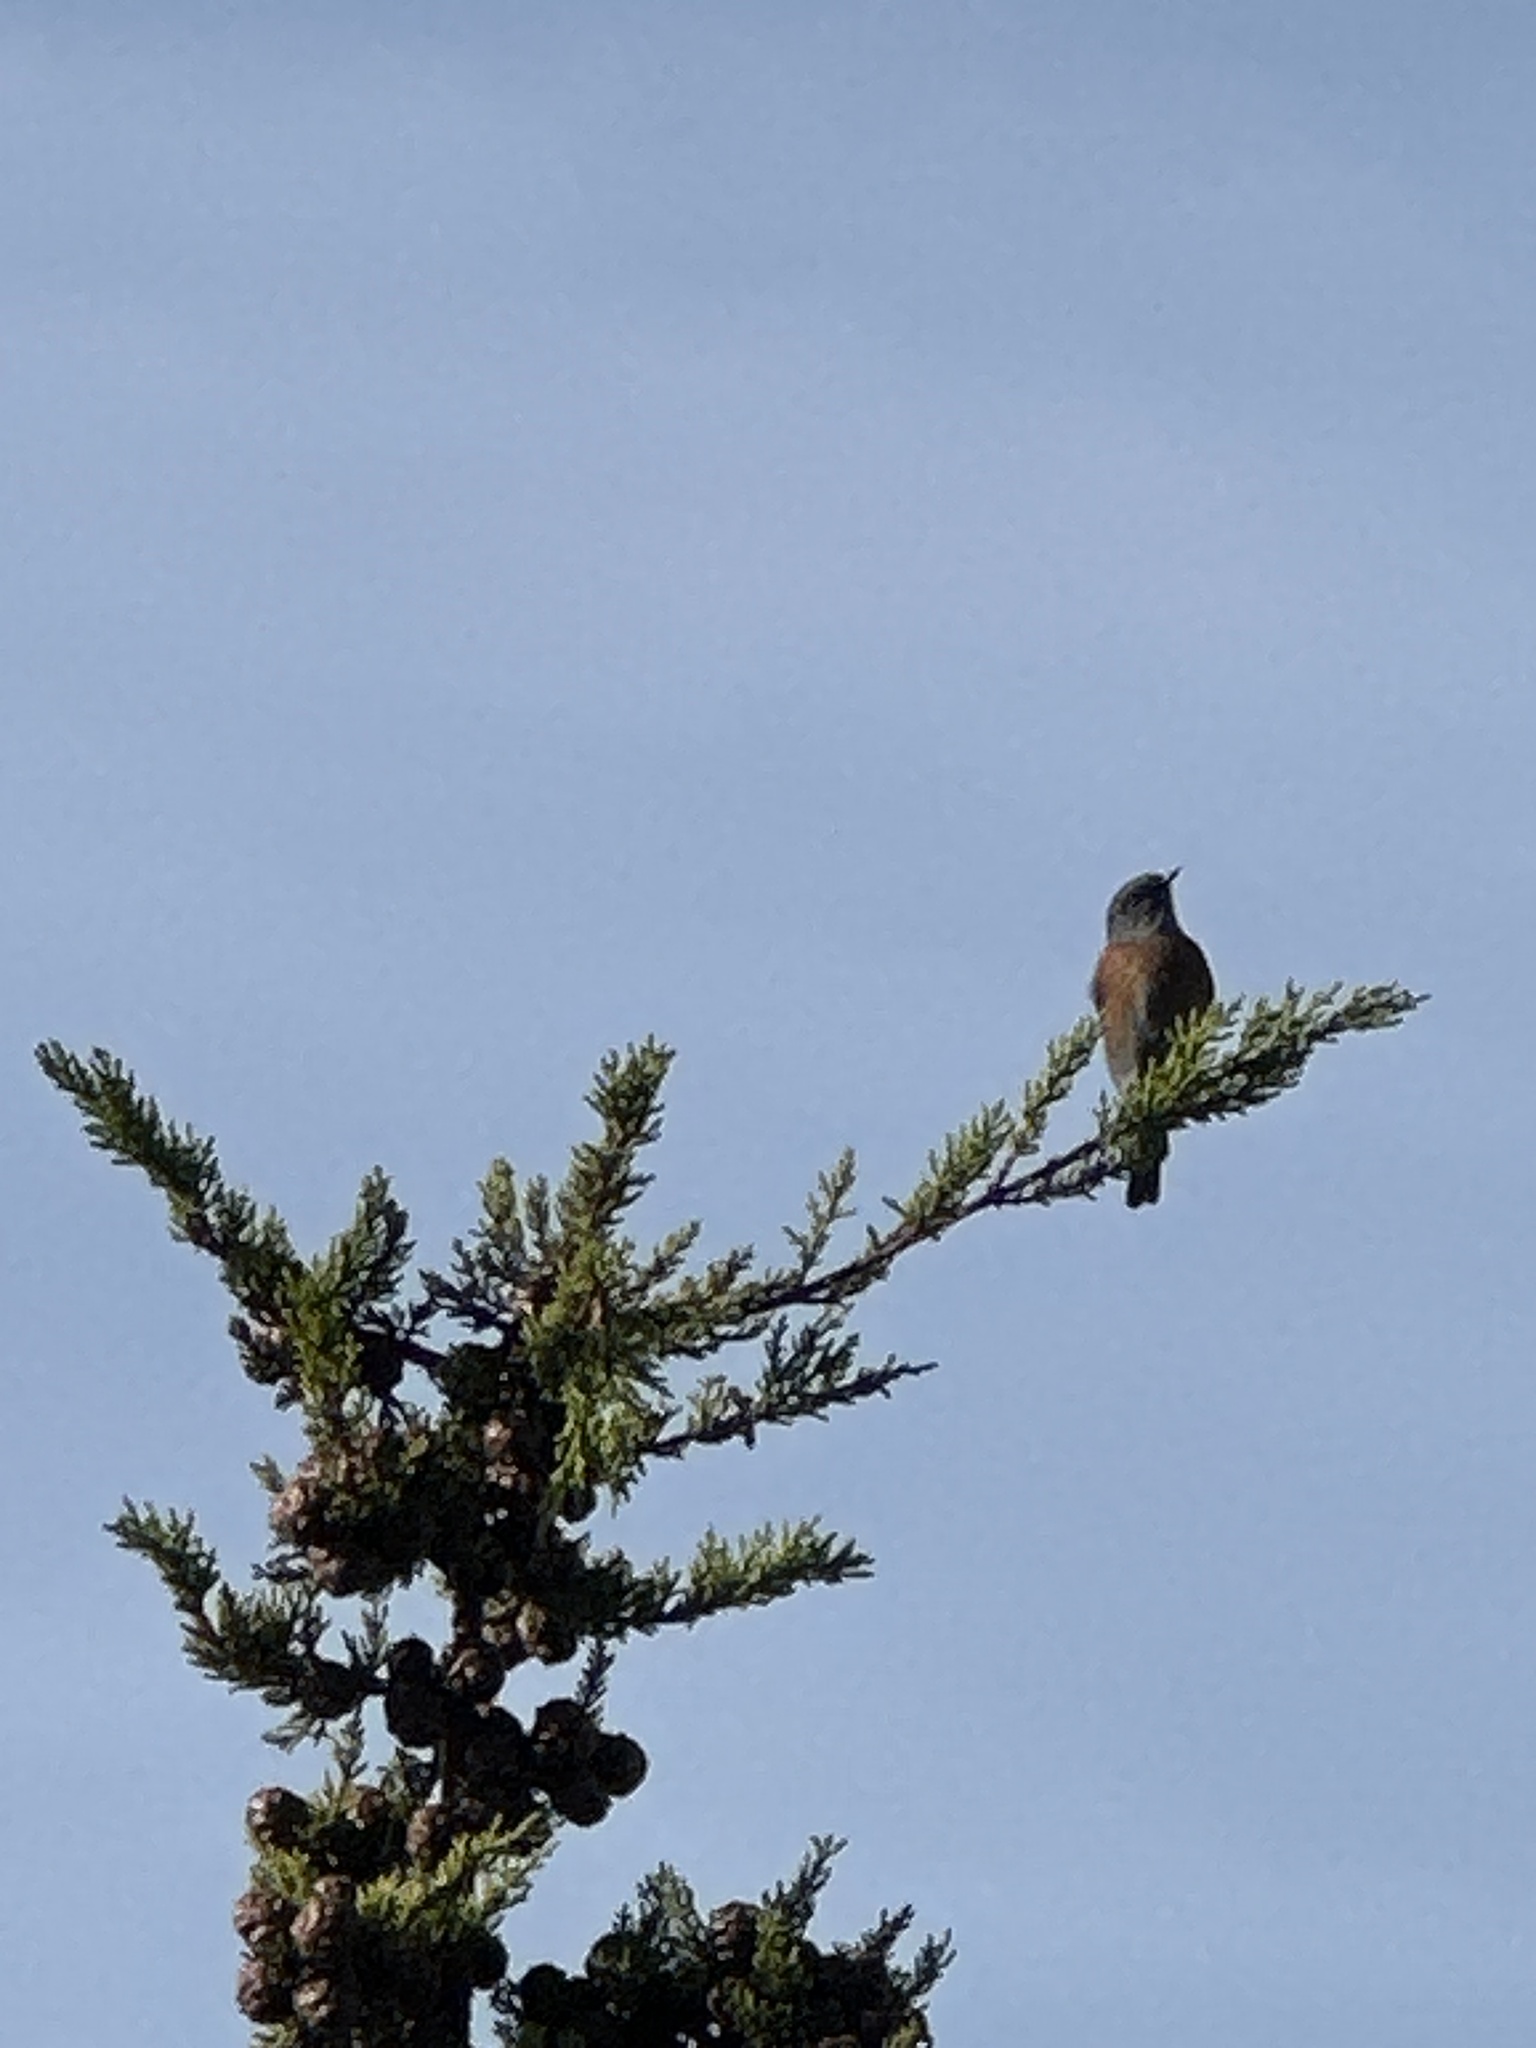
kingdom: Animalia
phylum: Chordata
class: Aves
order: Passeriformes
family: Turdidae
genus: Sialia
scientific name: Sialia mexicana
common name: Western bluebird
